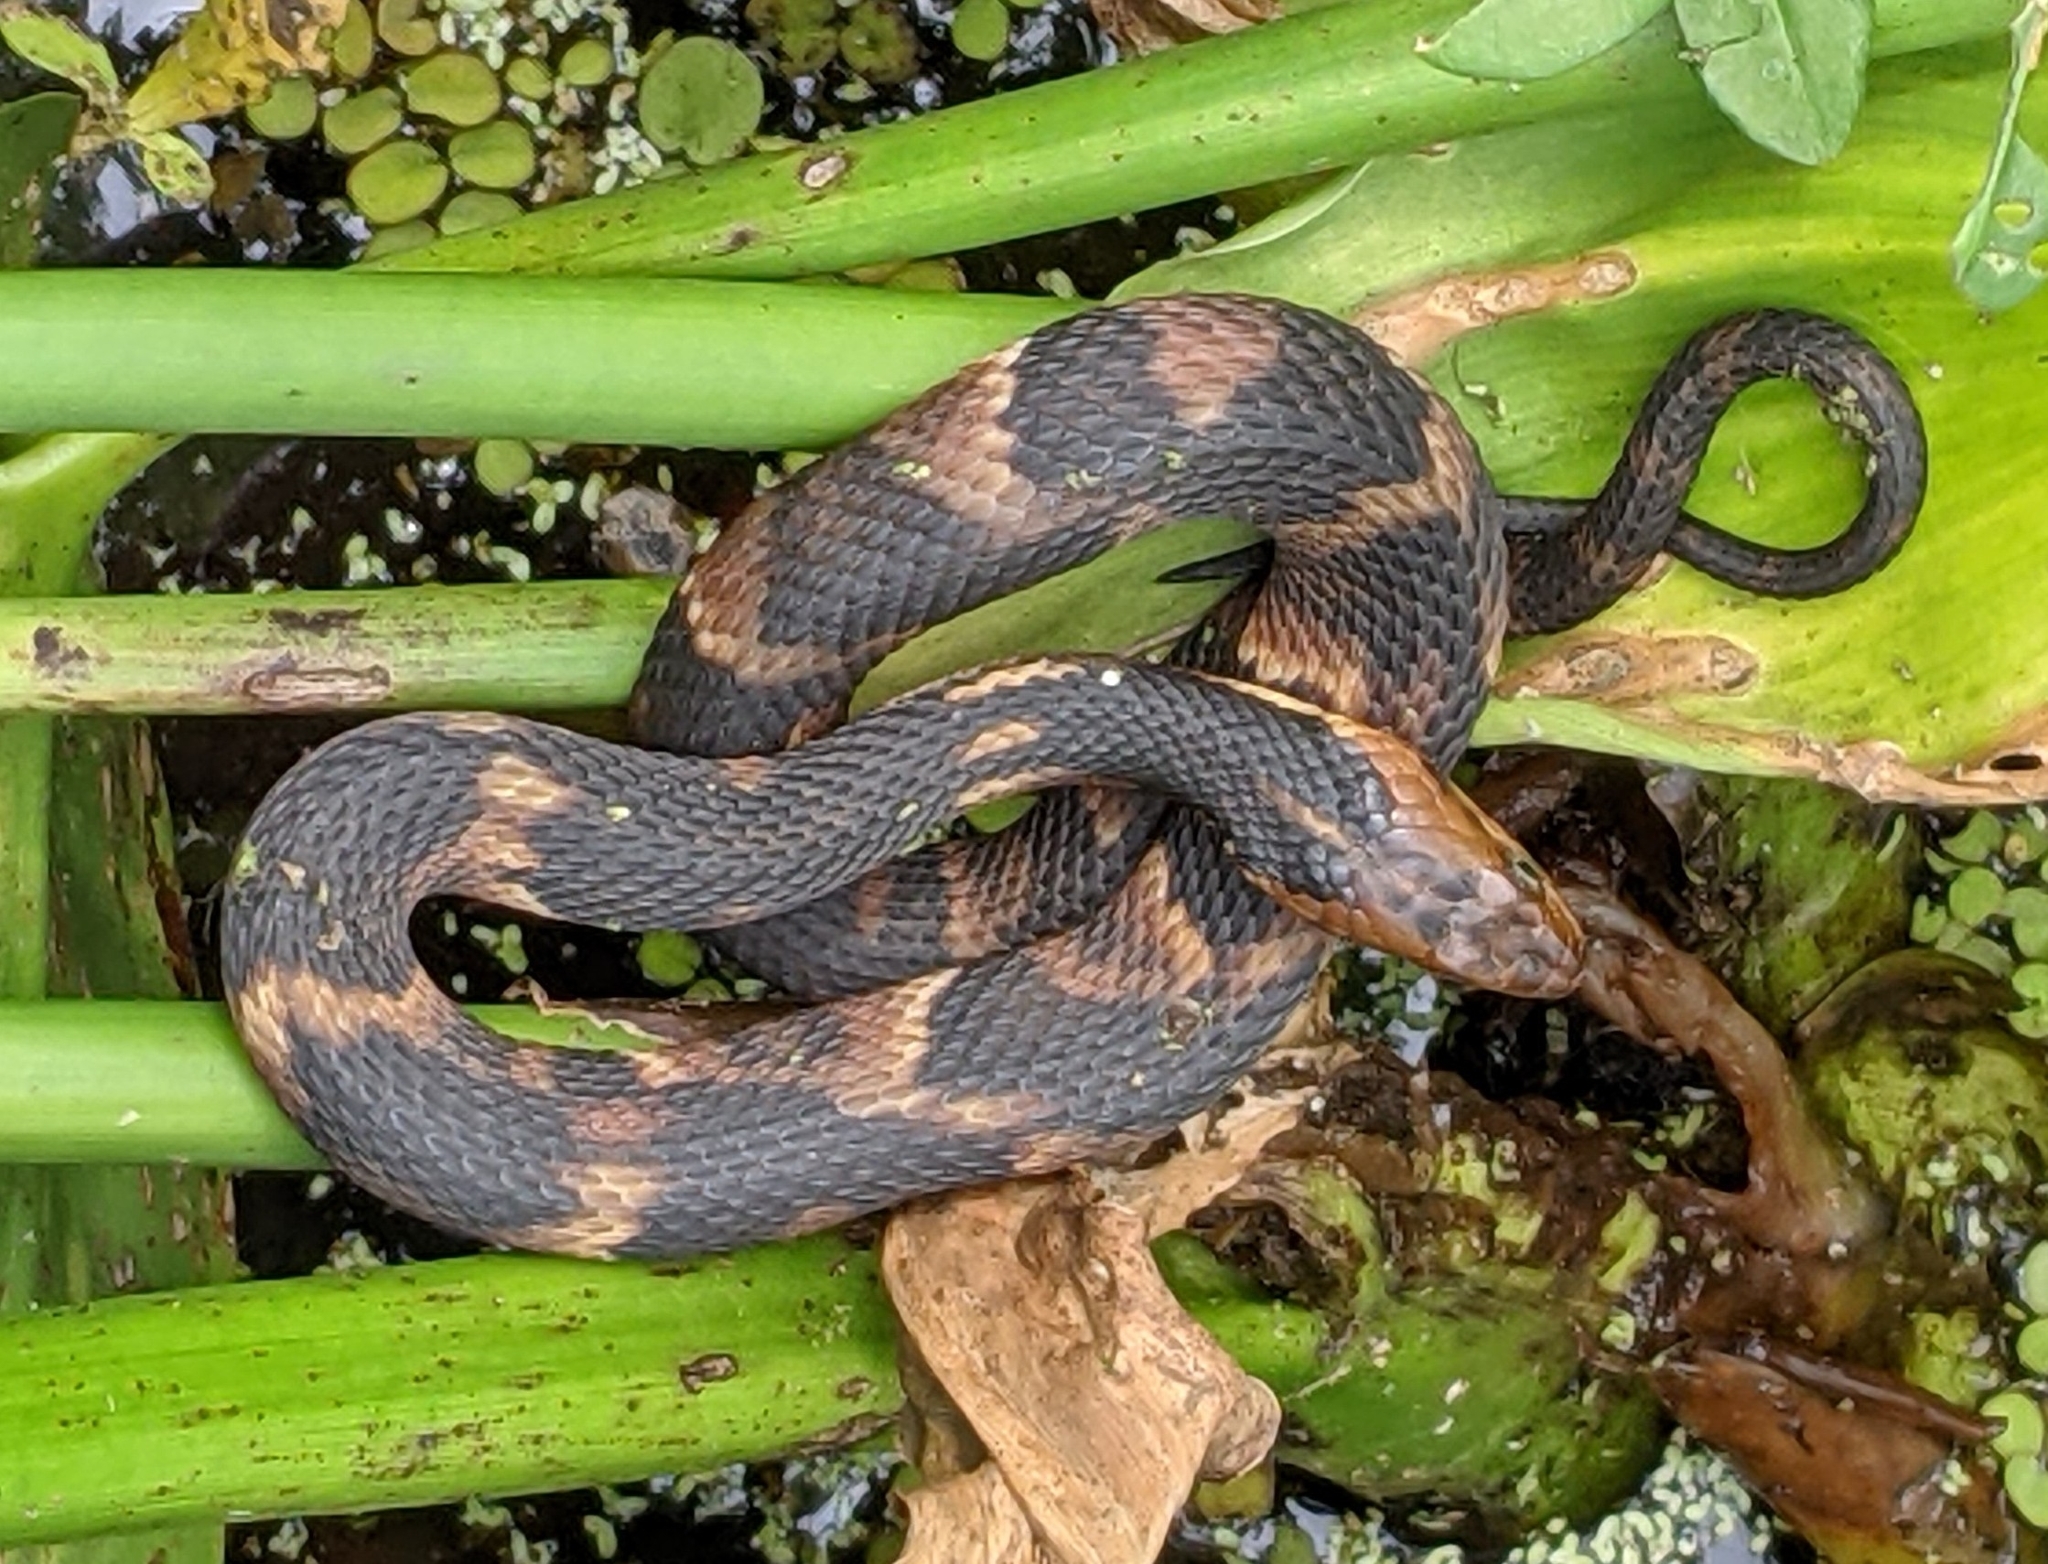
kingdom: Animalia
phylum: Chordata
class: Squamata
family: Colubridae
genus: Nerodia
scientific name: Nerodia fasciata
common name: Southern water snake
